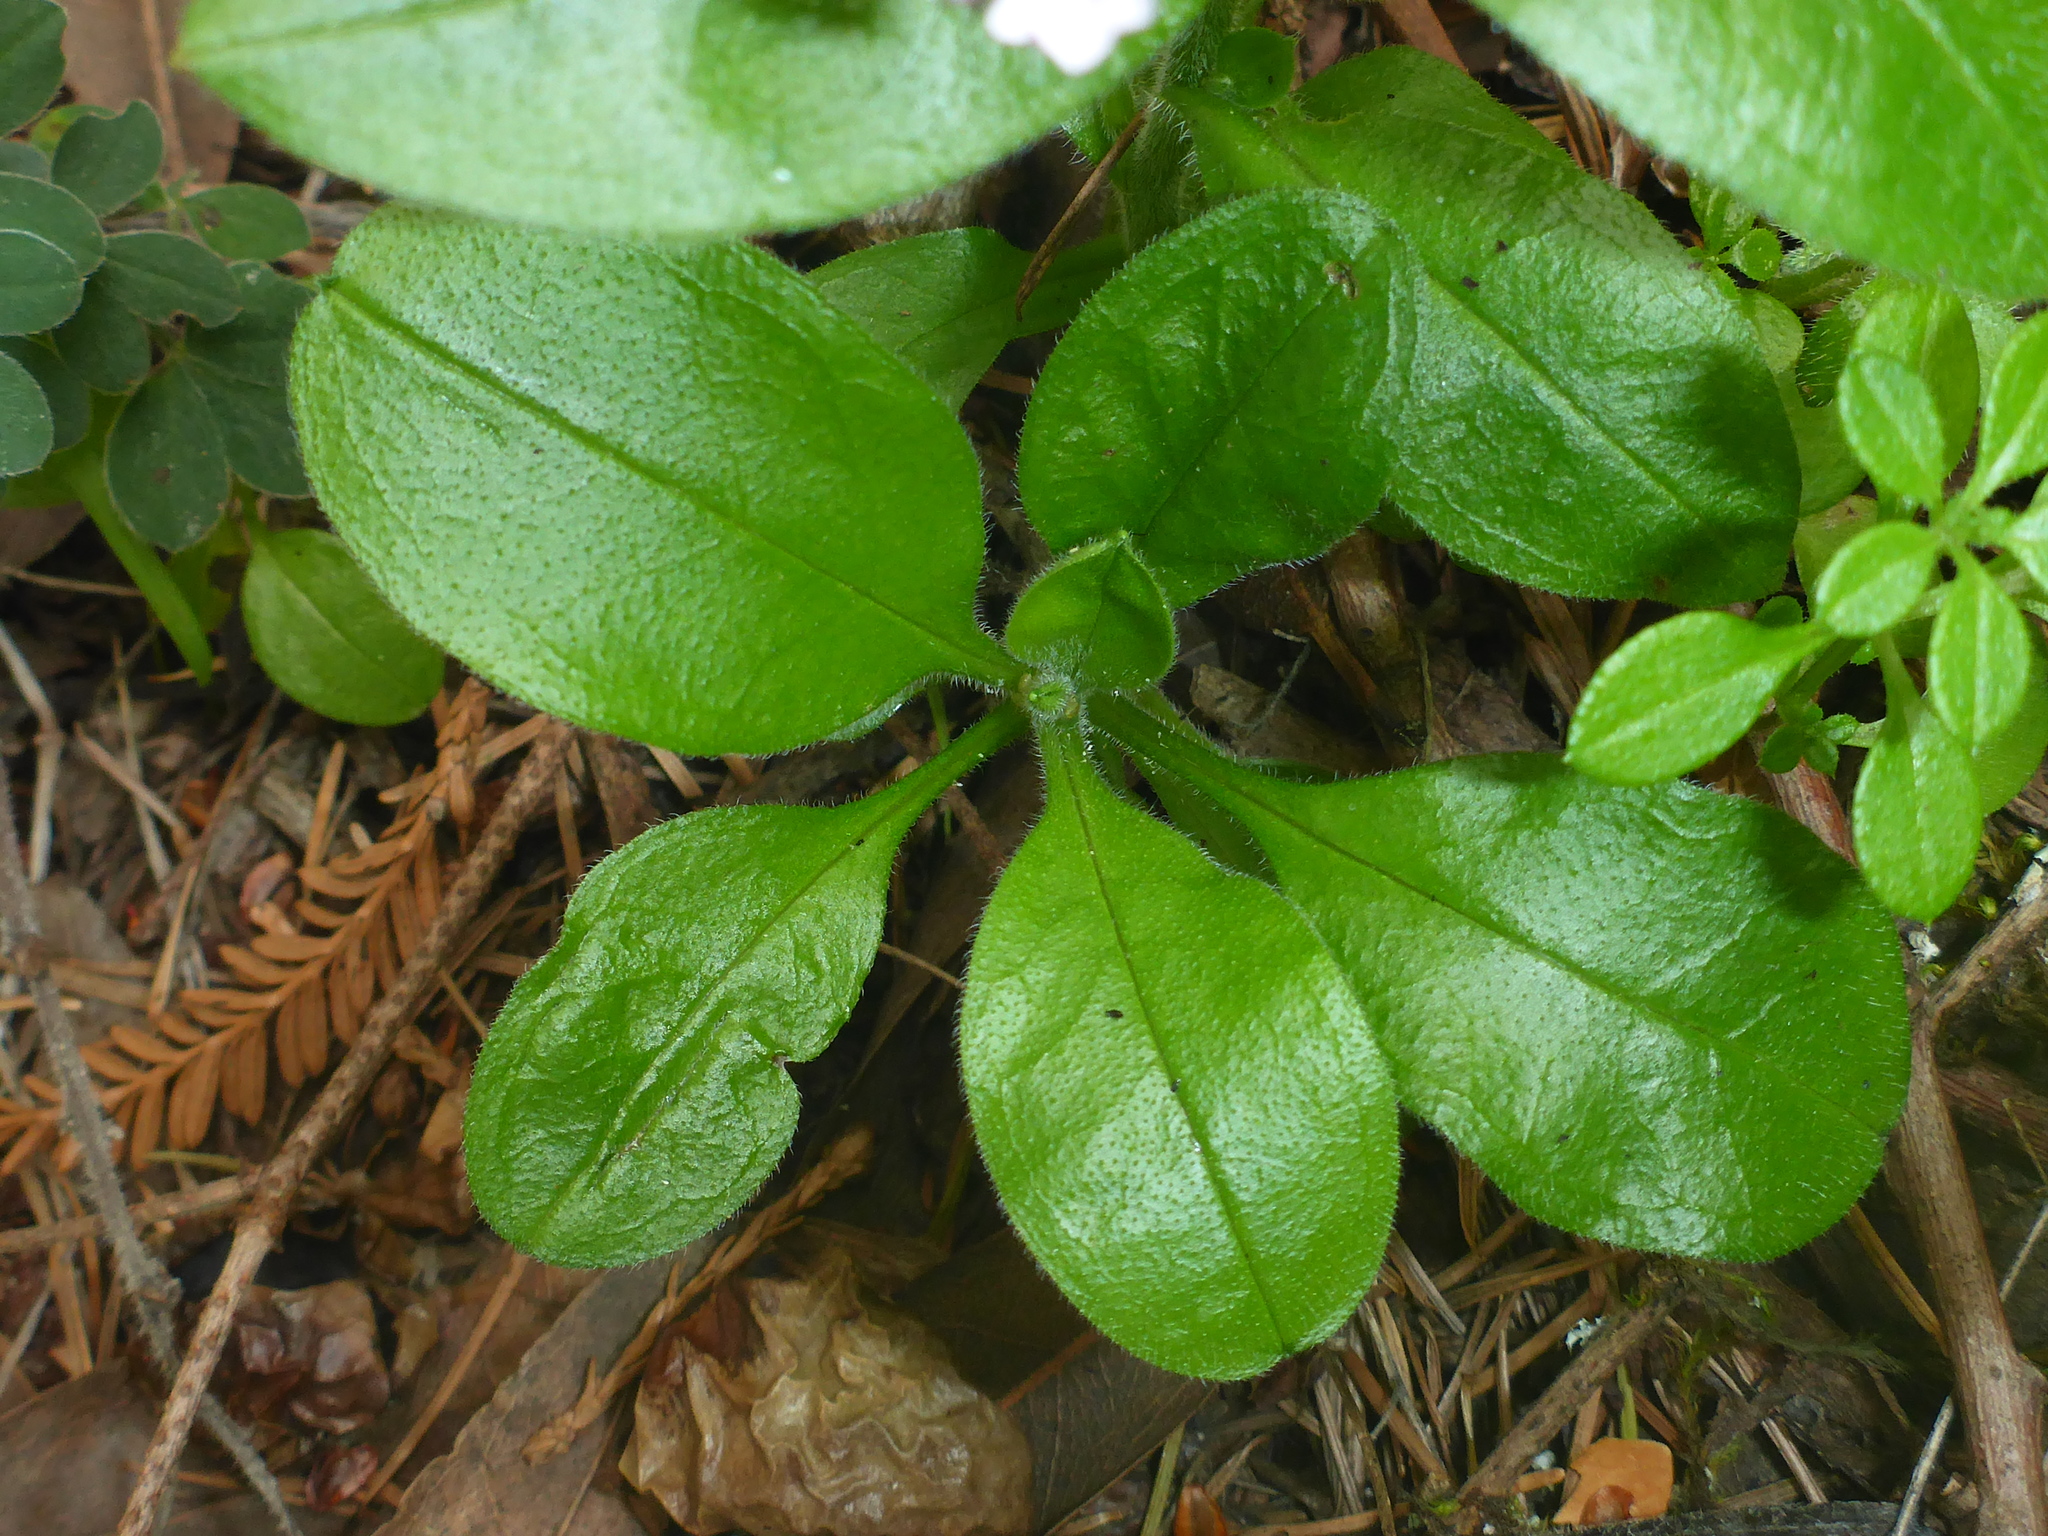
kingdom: Plantae
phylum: Tracheophyta
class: Magnoliopsida
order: Boraginales
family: Boraginaceae
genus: Myosotis
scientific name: Myosotis latifolia
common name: Broadleaf forget-me-not
